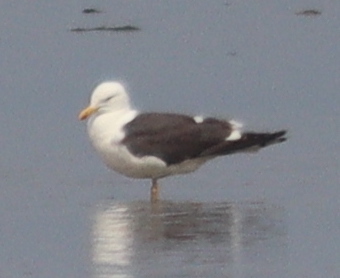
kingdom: Animalia
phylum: Chordata
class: Aves
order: Charadriiformes
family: Laridae
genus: Larus
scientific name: Larus fuscus
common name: Lesser black-backed gull
